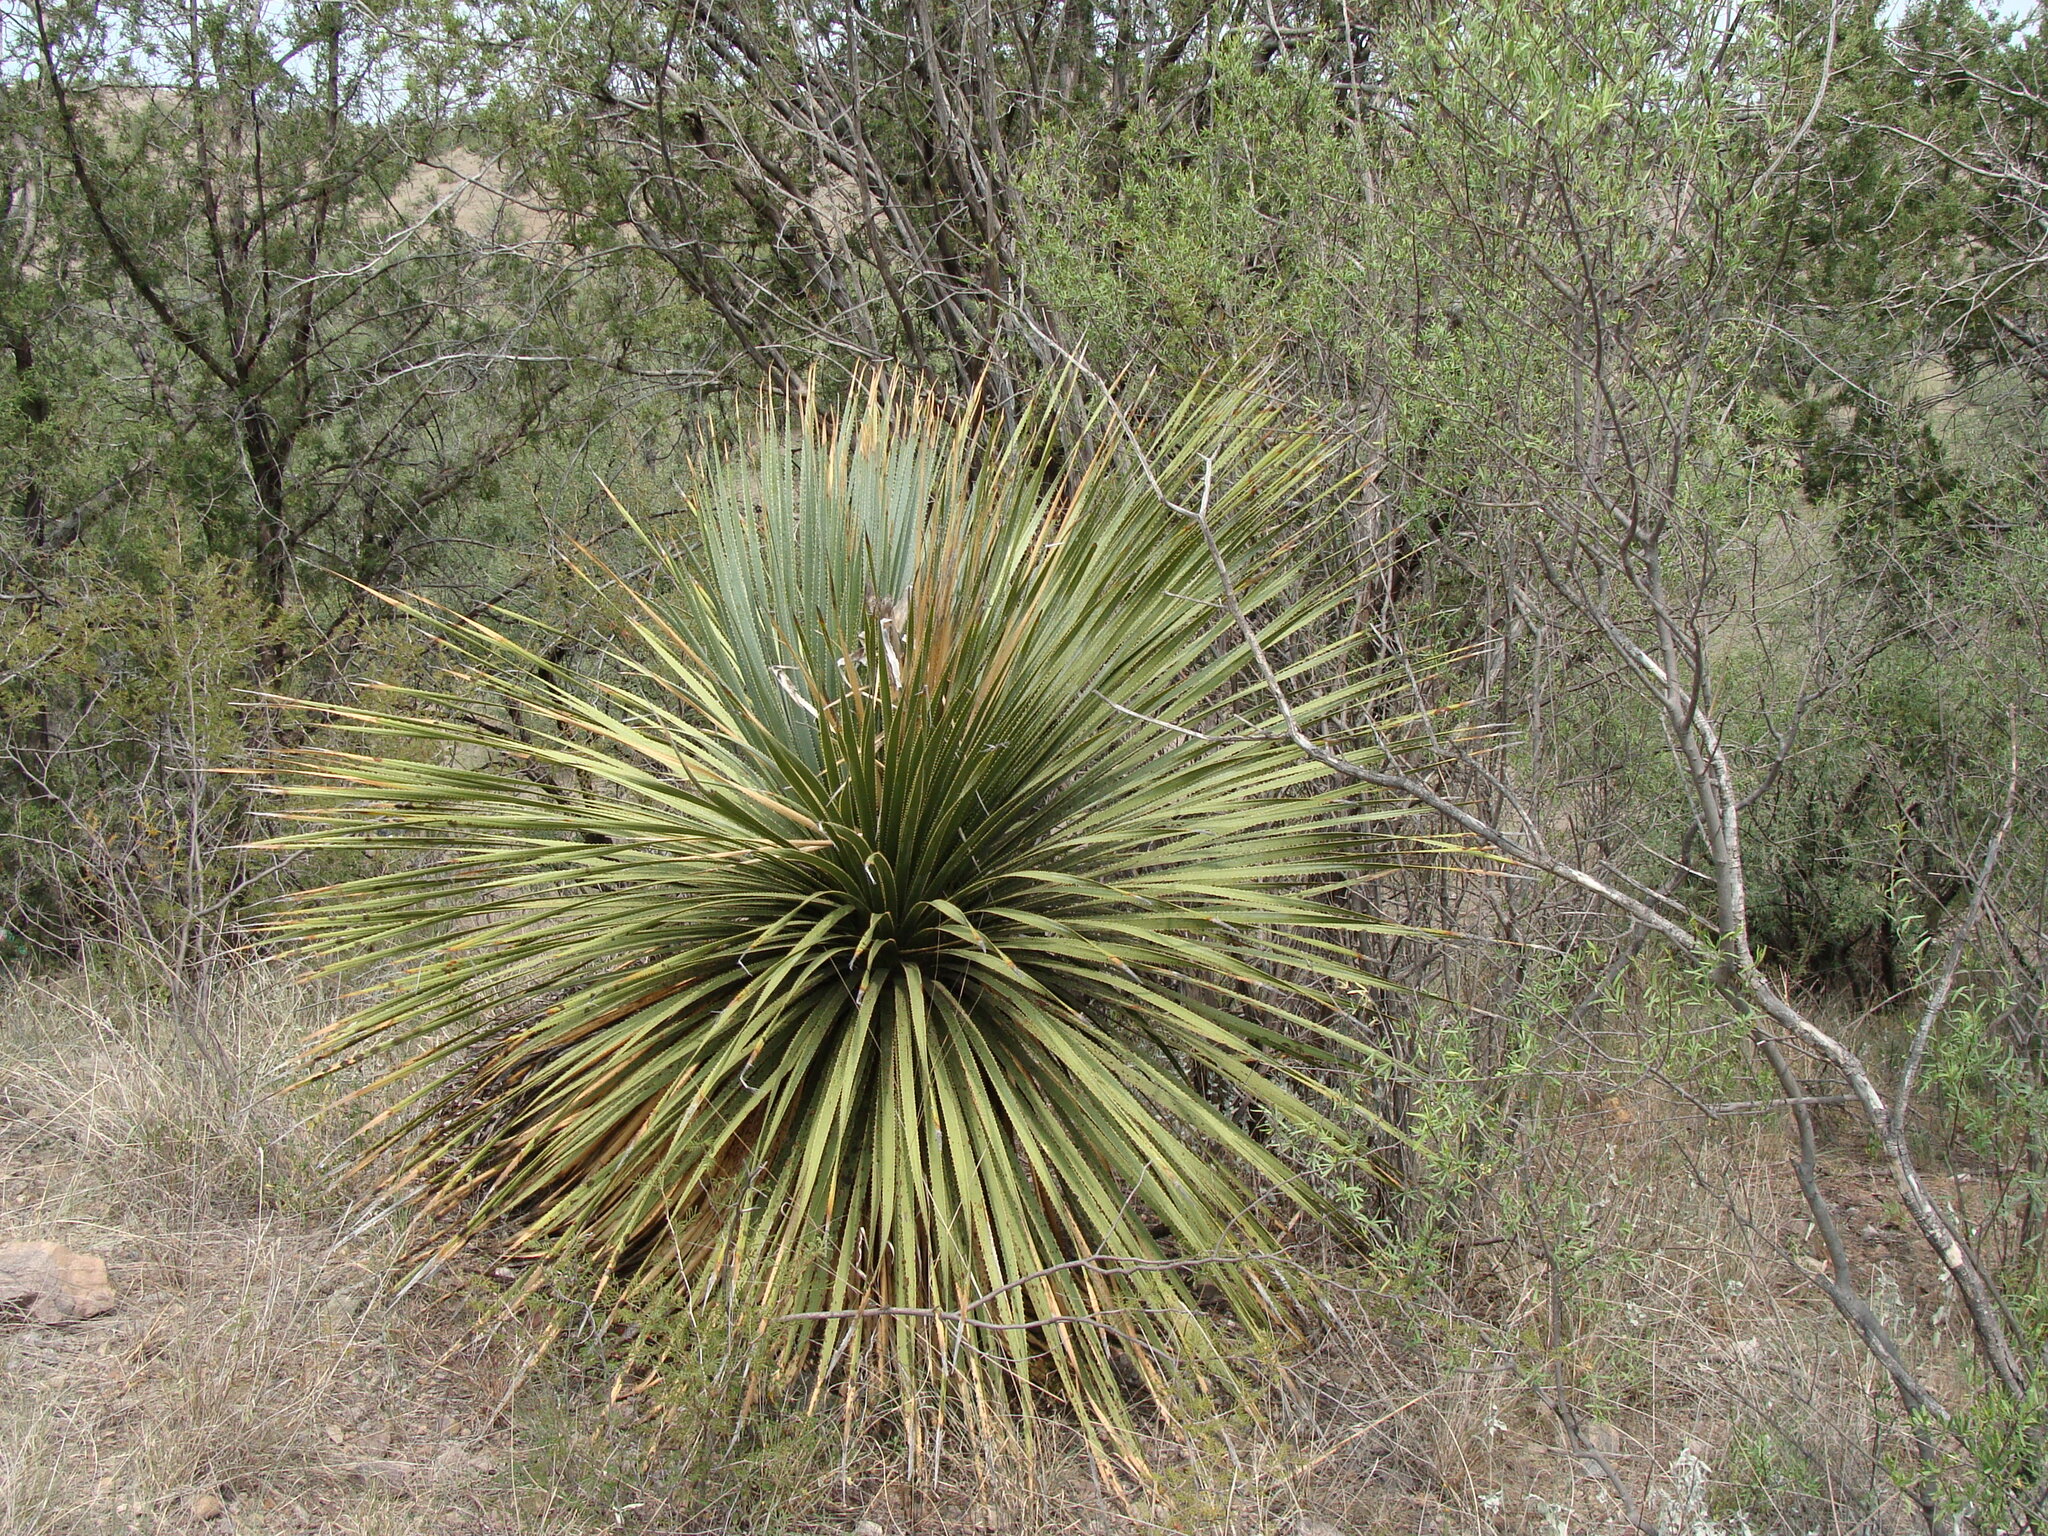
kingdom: Plantae
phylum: Tracheophyta
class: Liliopsida
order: Asparagales
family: Asparagaceae
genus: Dasylirion
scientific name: Dasylirion wheeleri
